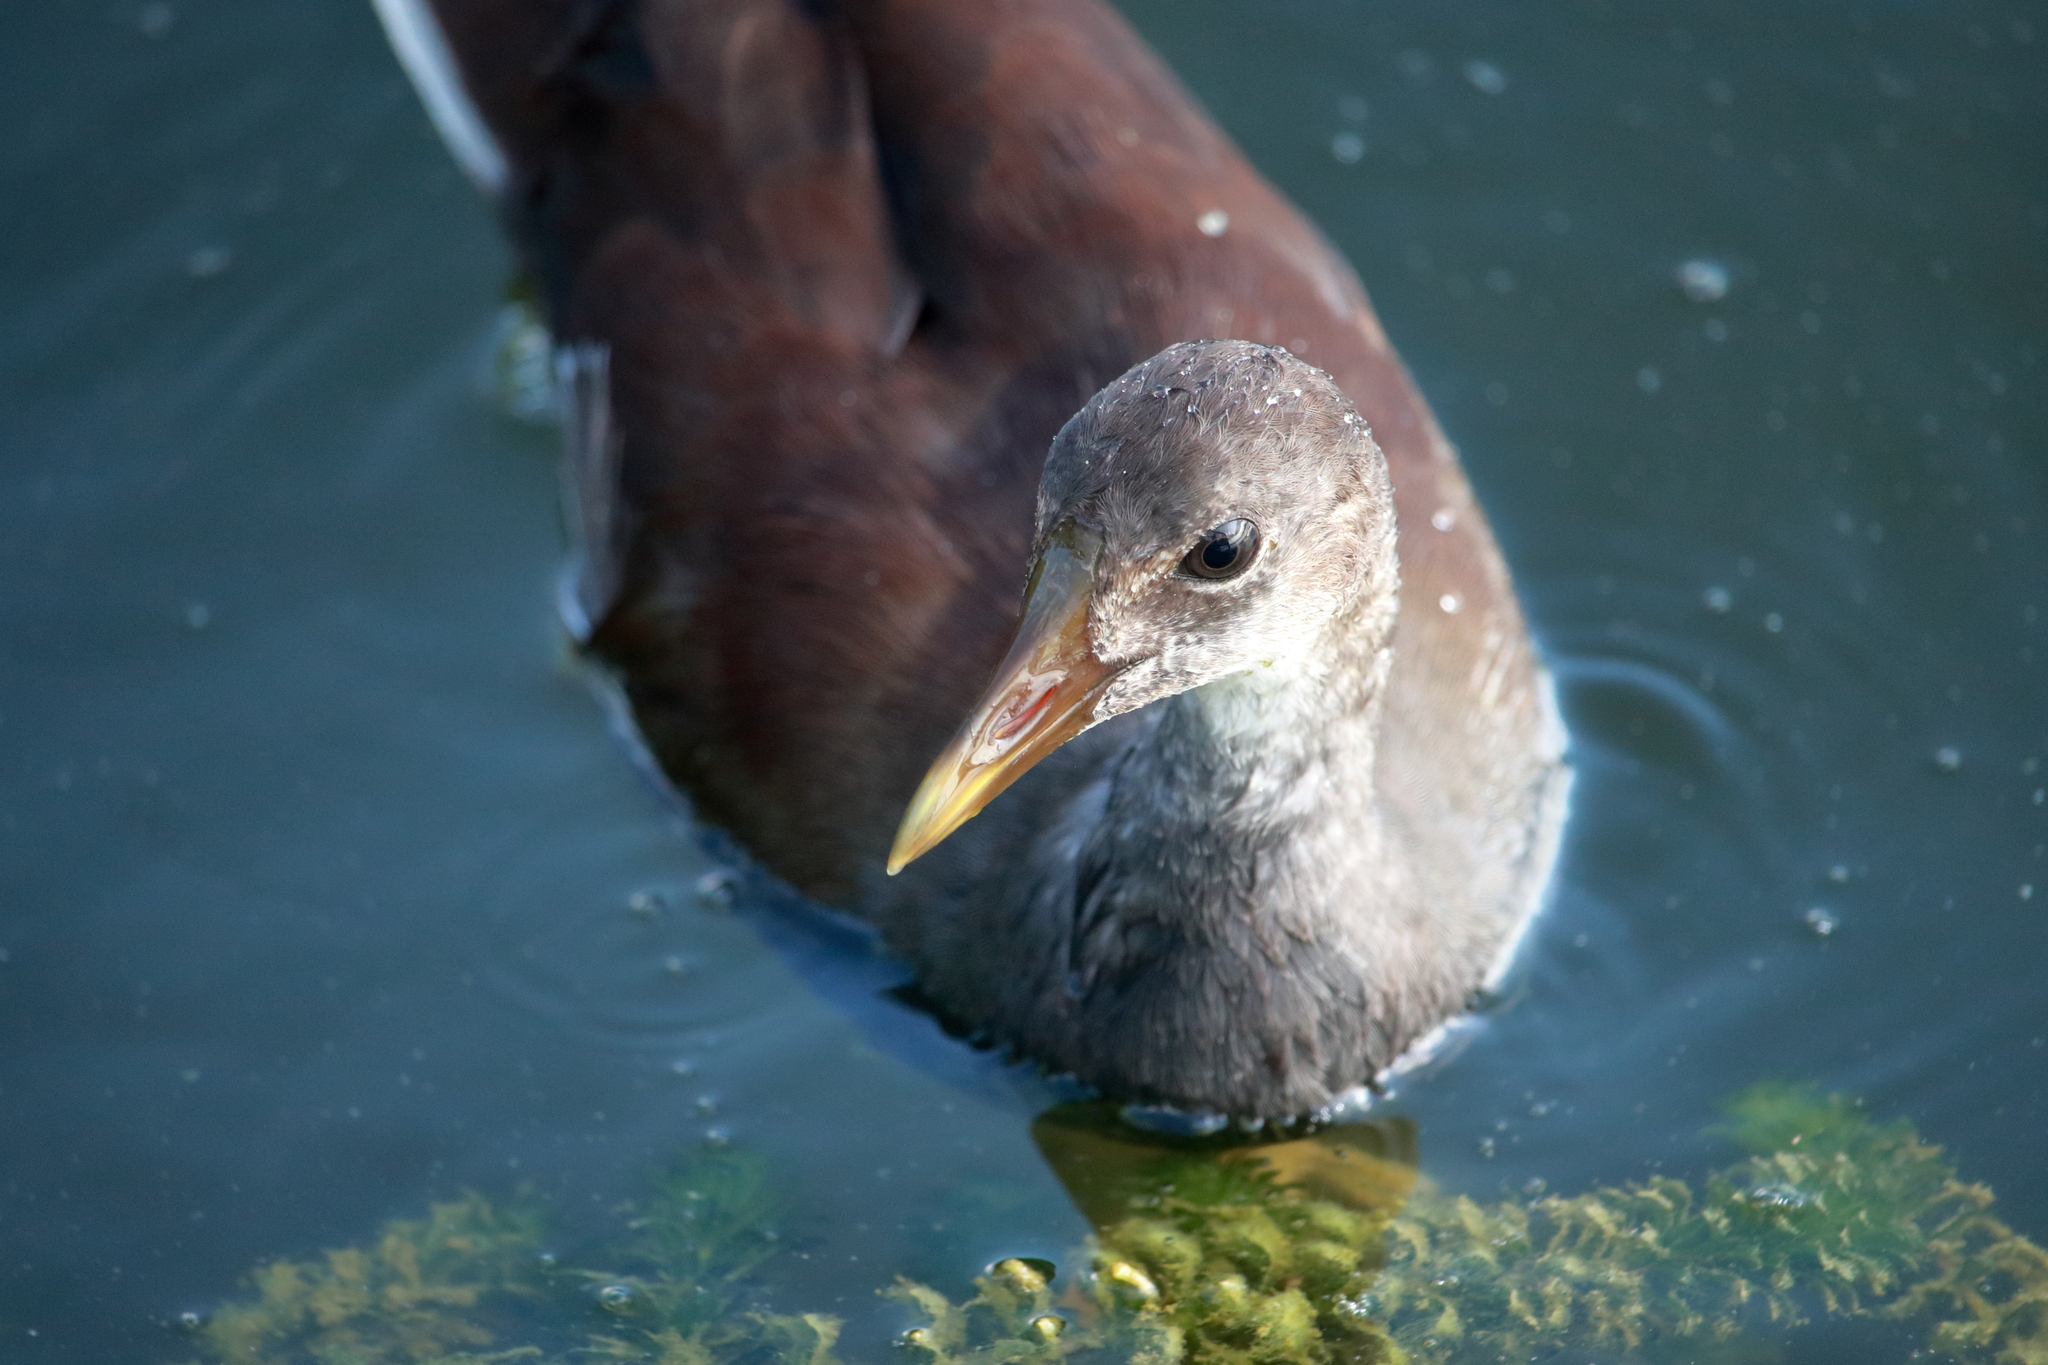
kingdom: Animalia
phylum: Chordata
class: Aves
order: Gruiformes
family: Rallidae
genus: Gallinula
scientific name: Gallinula chloropus
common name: Common moorhen
